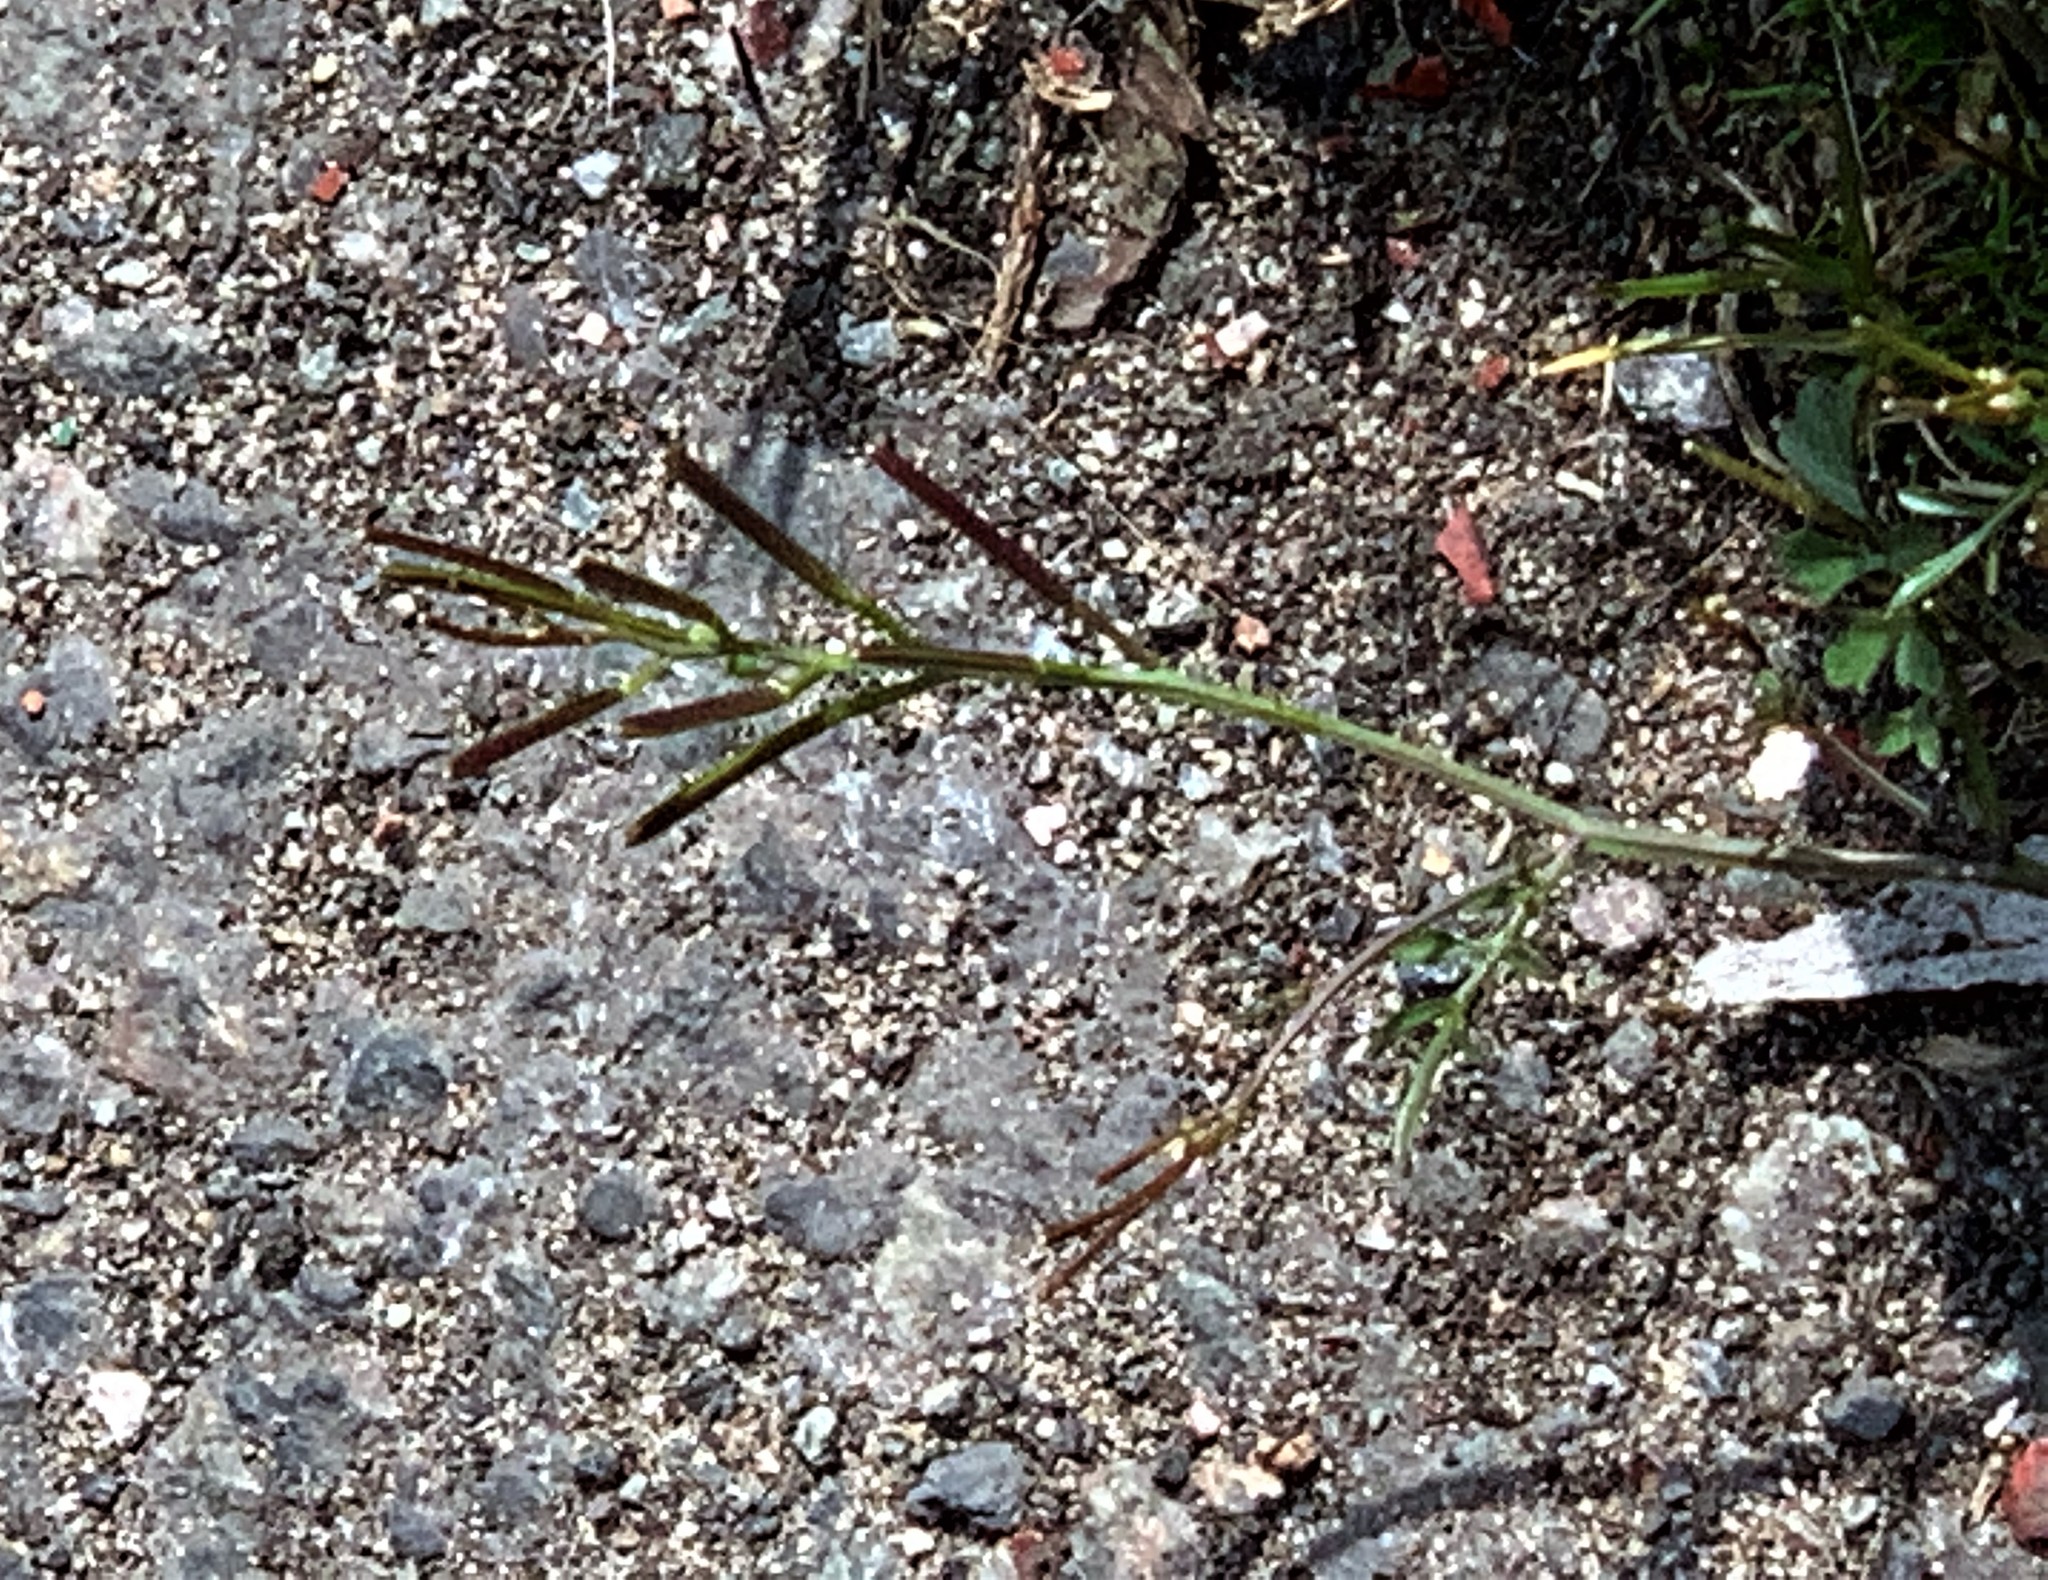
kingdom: Plantae
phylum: Tracheophyta
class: Magnoliopsida
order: Brassicales
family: Brassicaceae
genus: Cardamine
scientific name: Cardamine hirsuta
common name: Hairy bittercress
